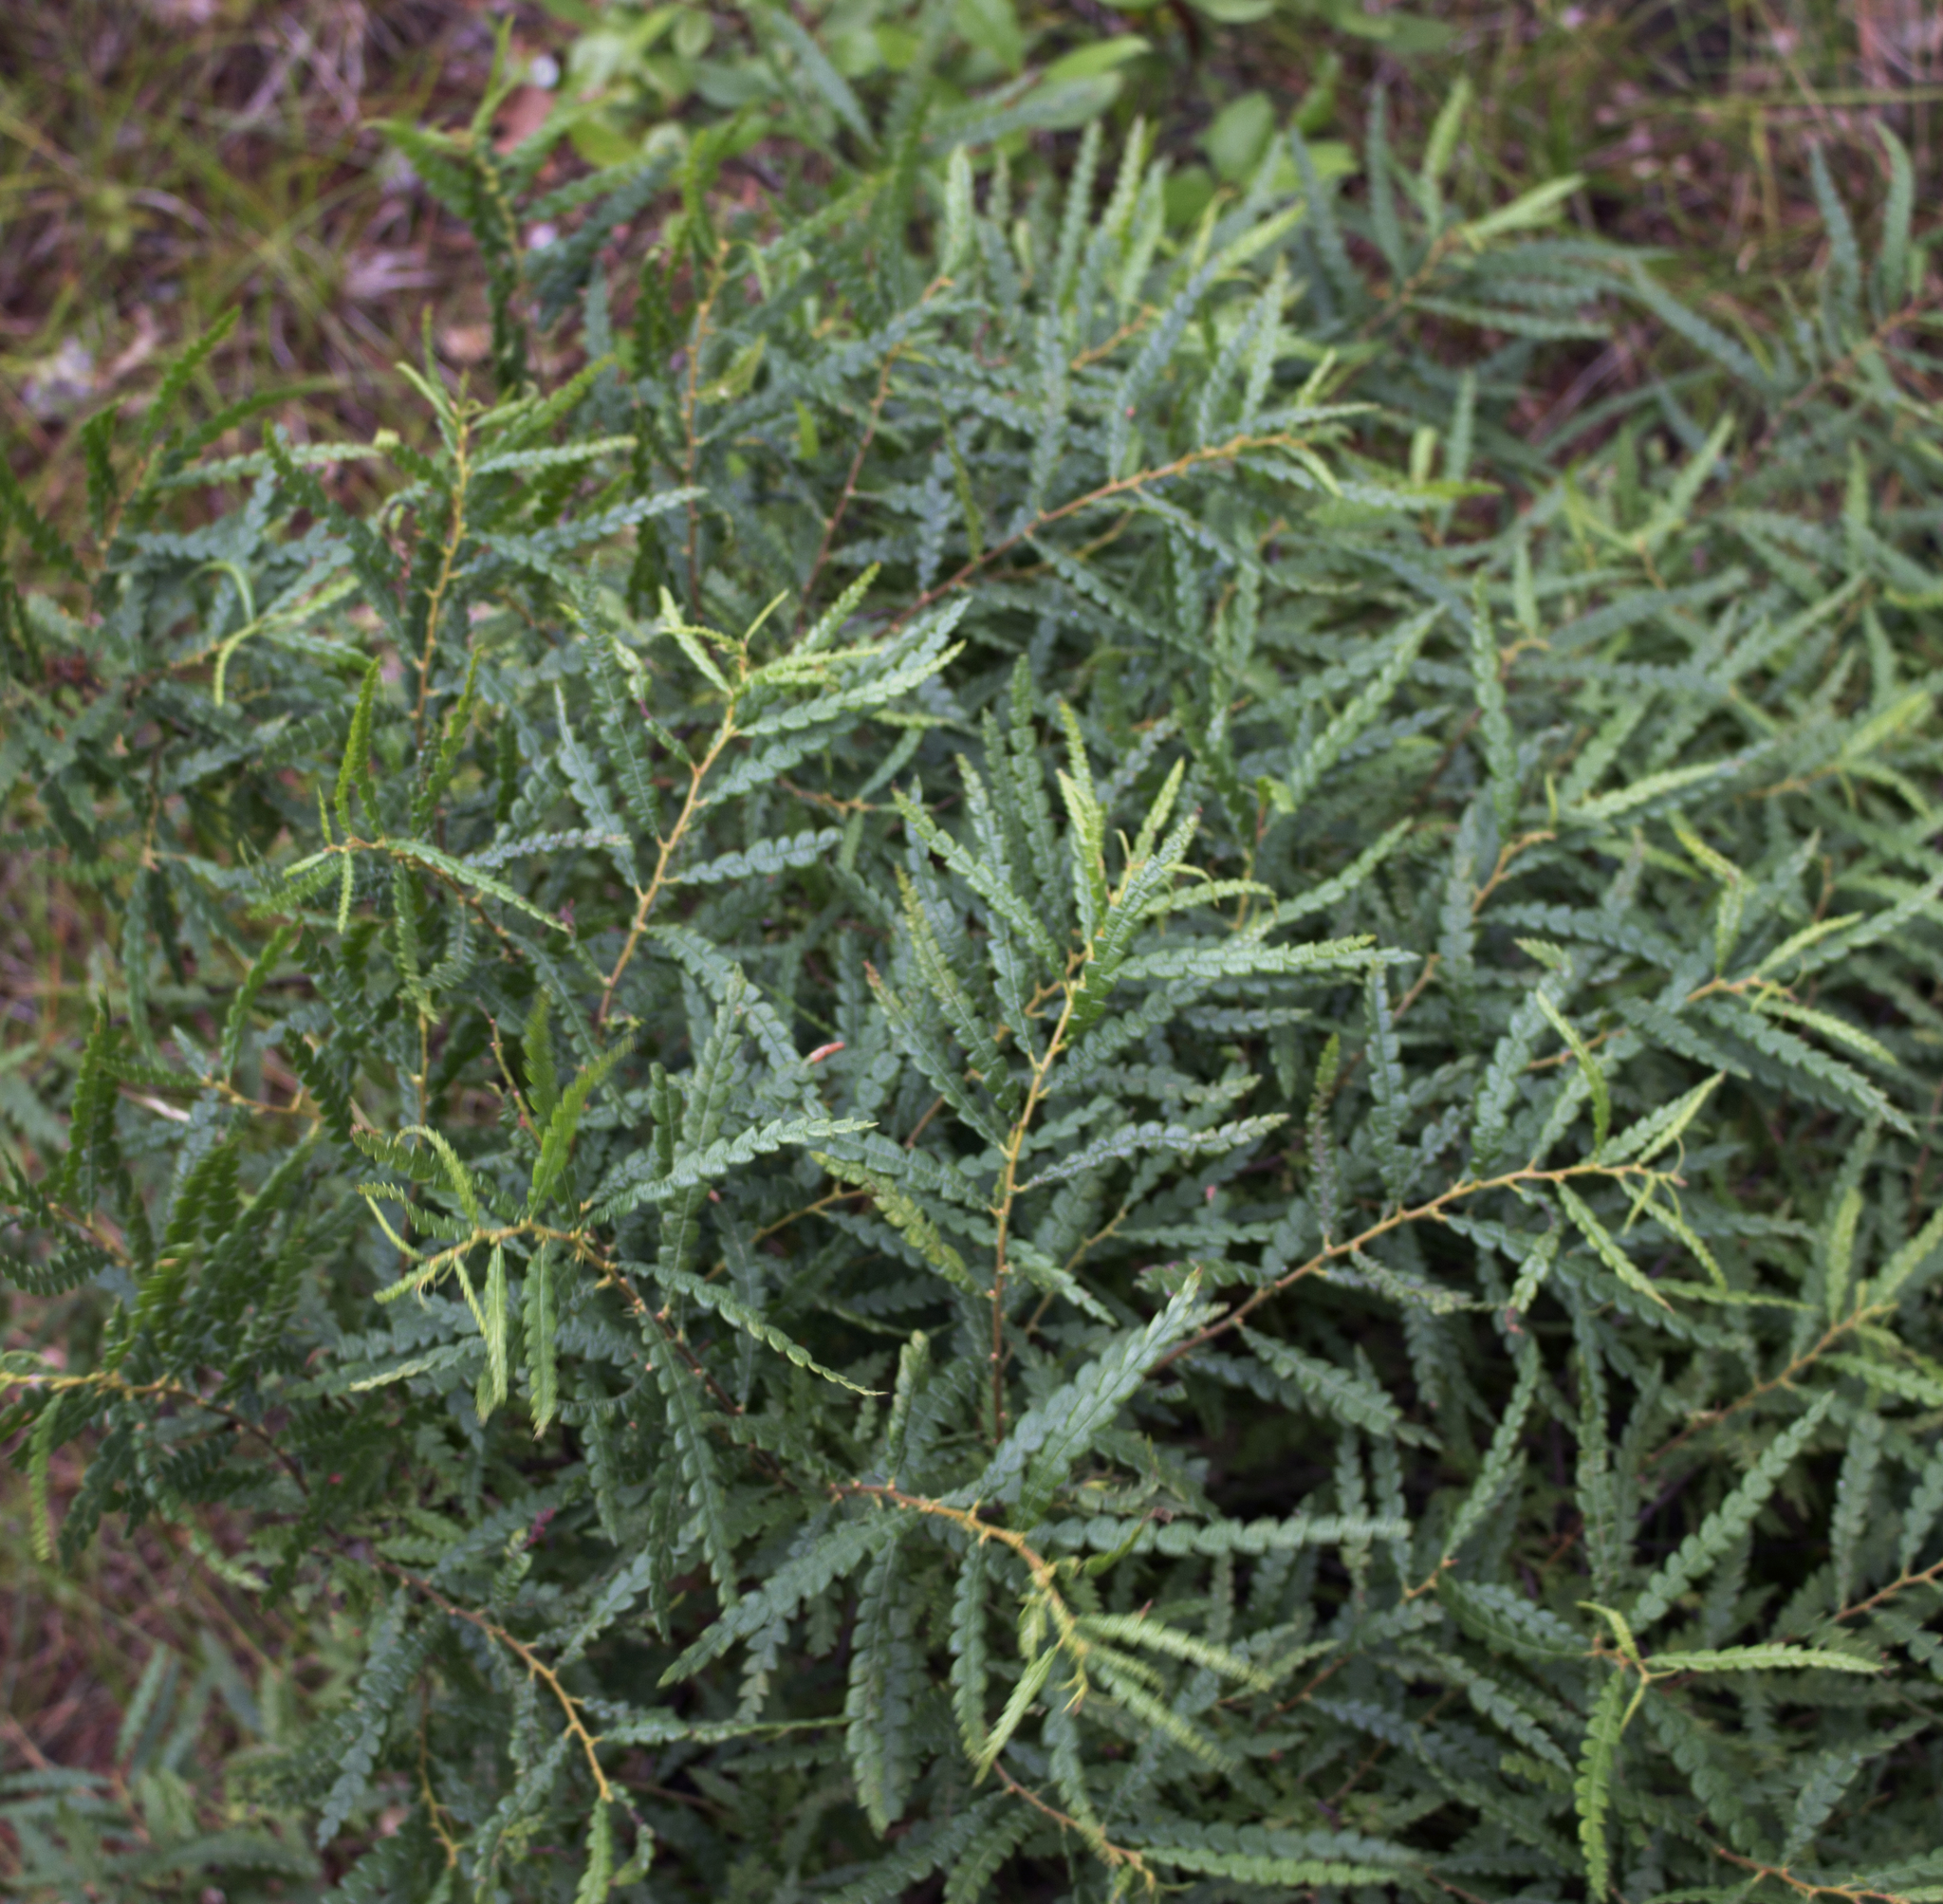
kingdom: Plantae
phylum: Tracheophyta
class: Magnoliopsida
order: Fagales
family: Myricaceae
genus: Comptonia
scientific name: Comptonia peregrina
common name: Sweet-fern
